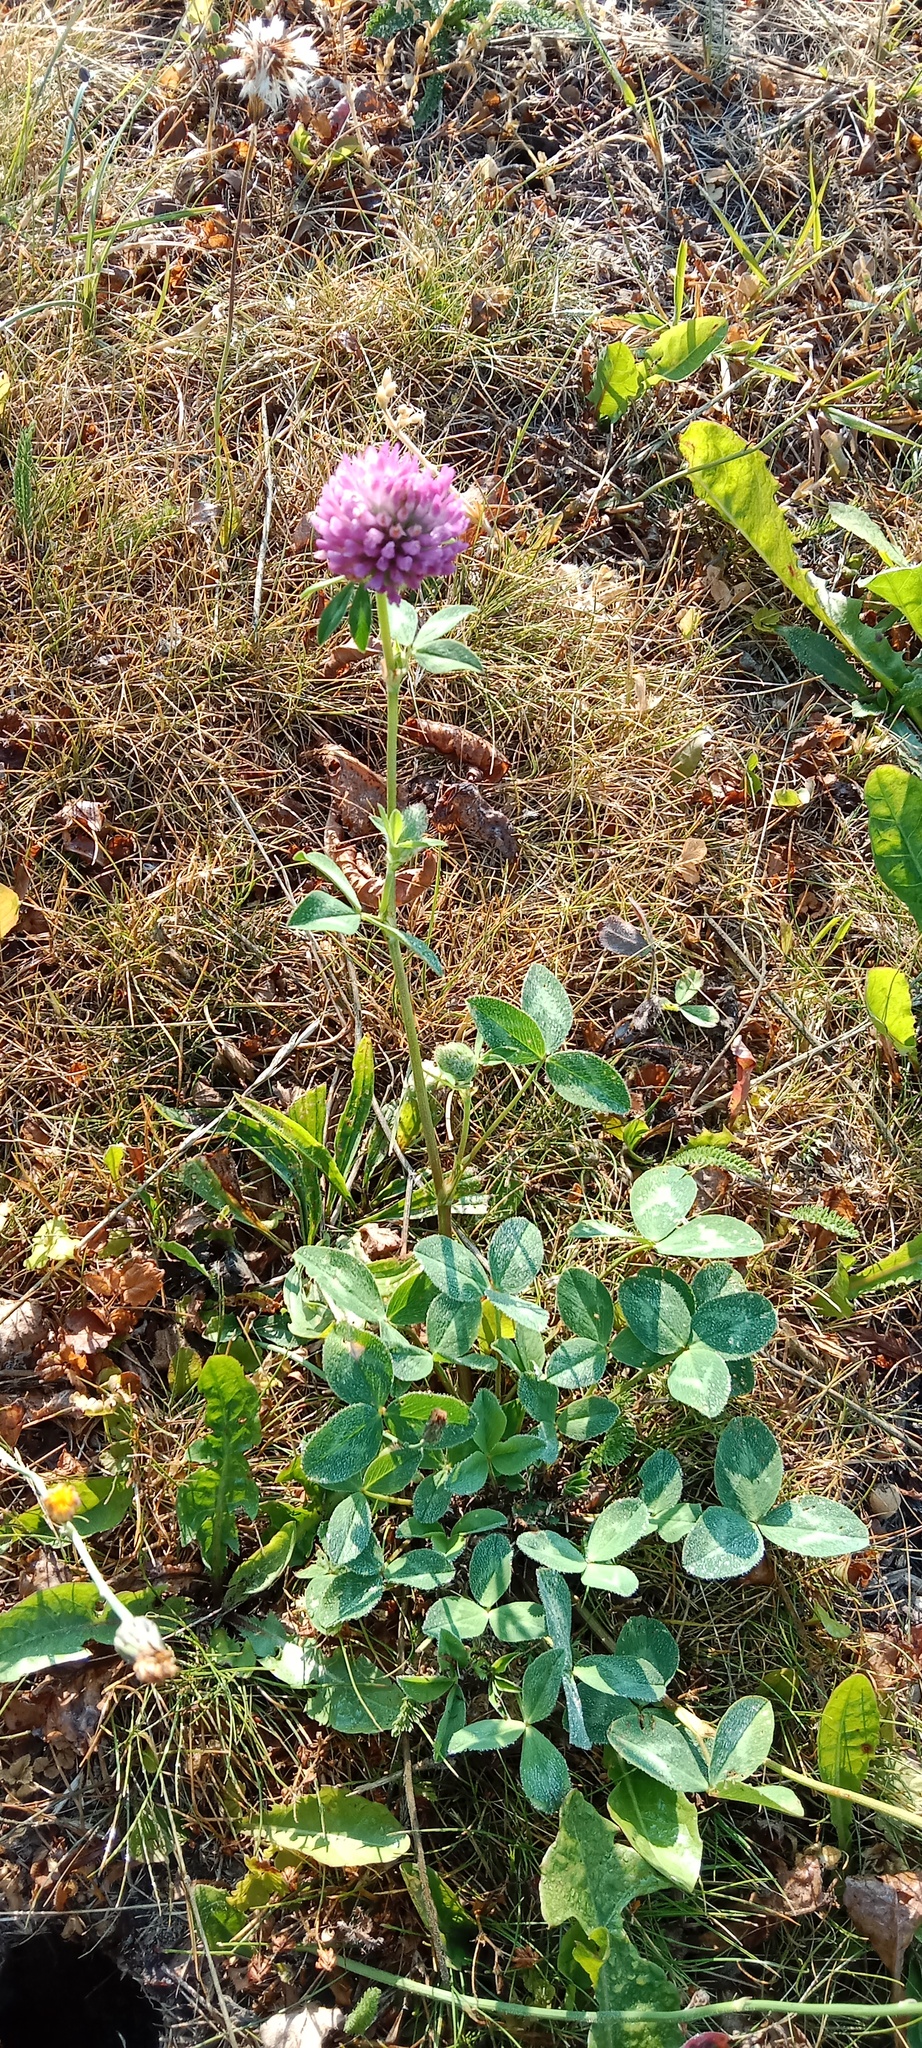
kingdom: Plantae
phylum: Tracheophyta
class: Magnoliopsida
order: Fabales
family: Fabaceae
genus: Trifolium
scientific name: Trifolium pratense
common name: Red clover
